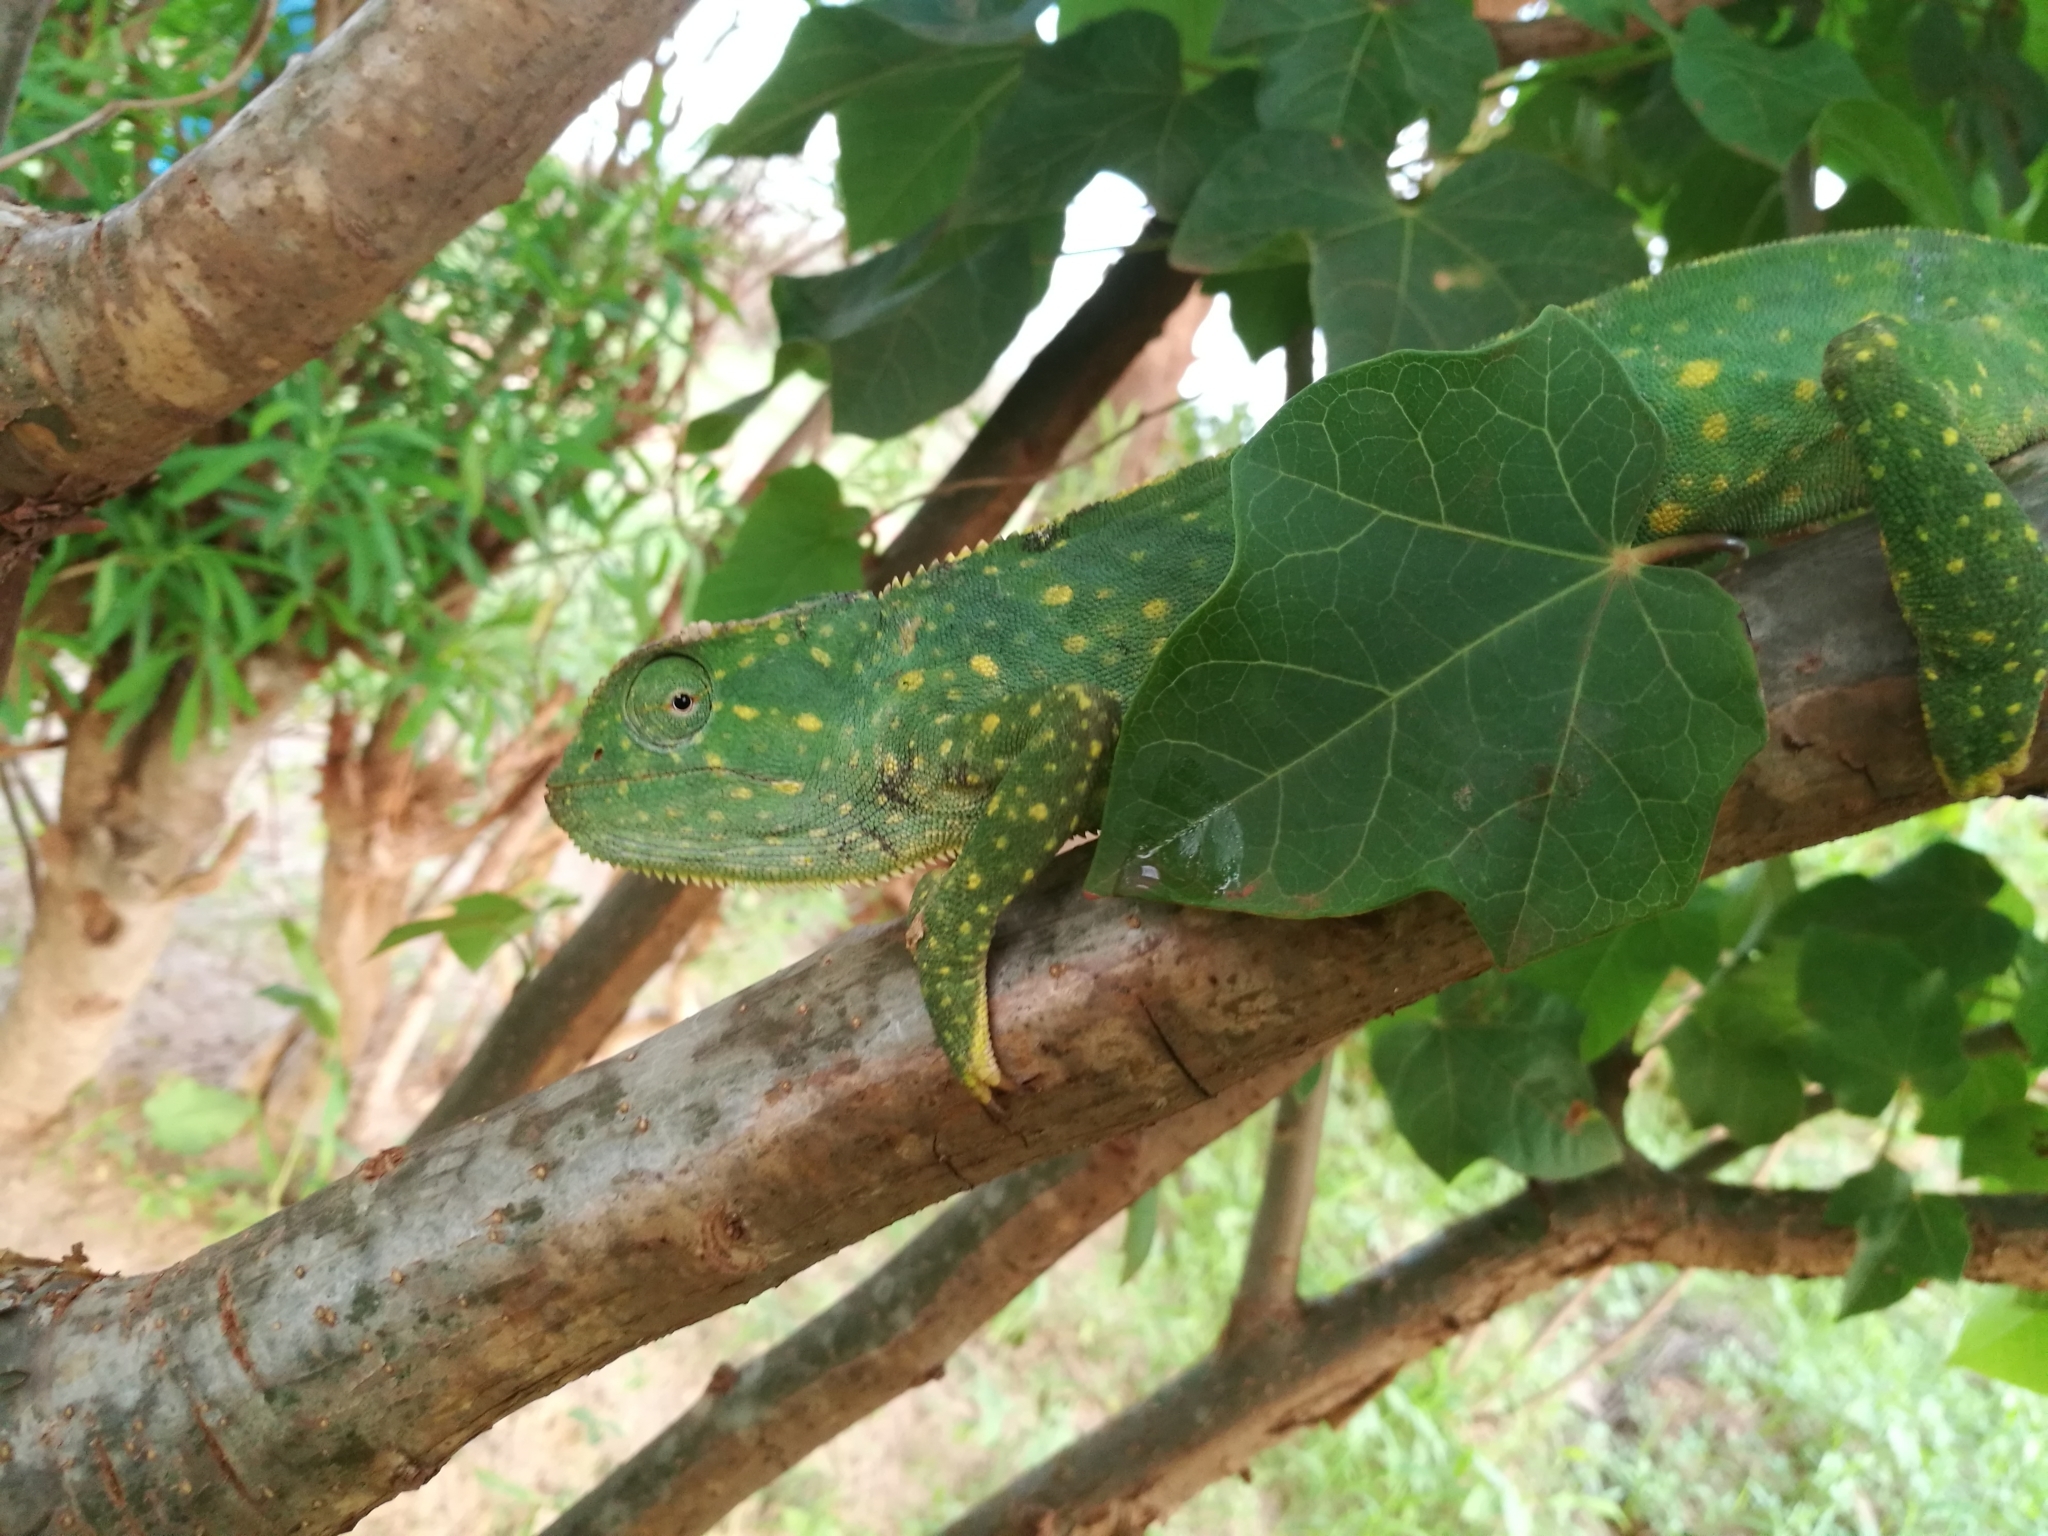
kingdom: Animalia
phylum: Chordata
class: Squamata
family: Chamaeleonidae
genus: Chamaeleo
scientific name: Chamaeleo gracilis
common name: Graceful chameleon
